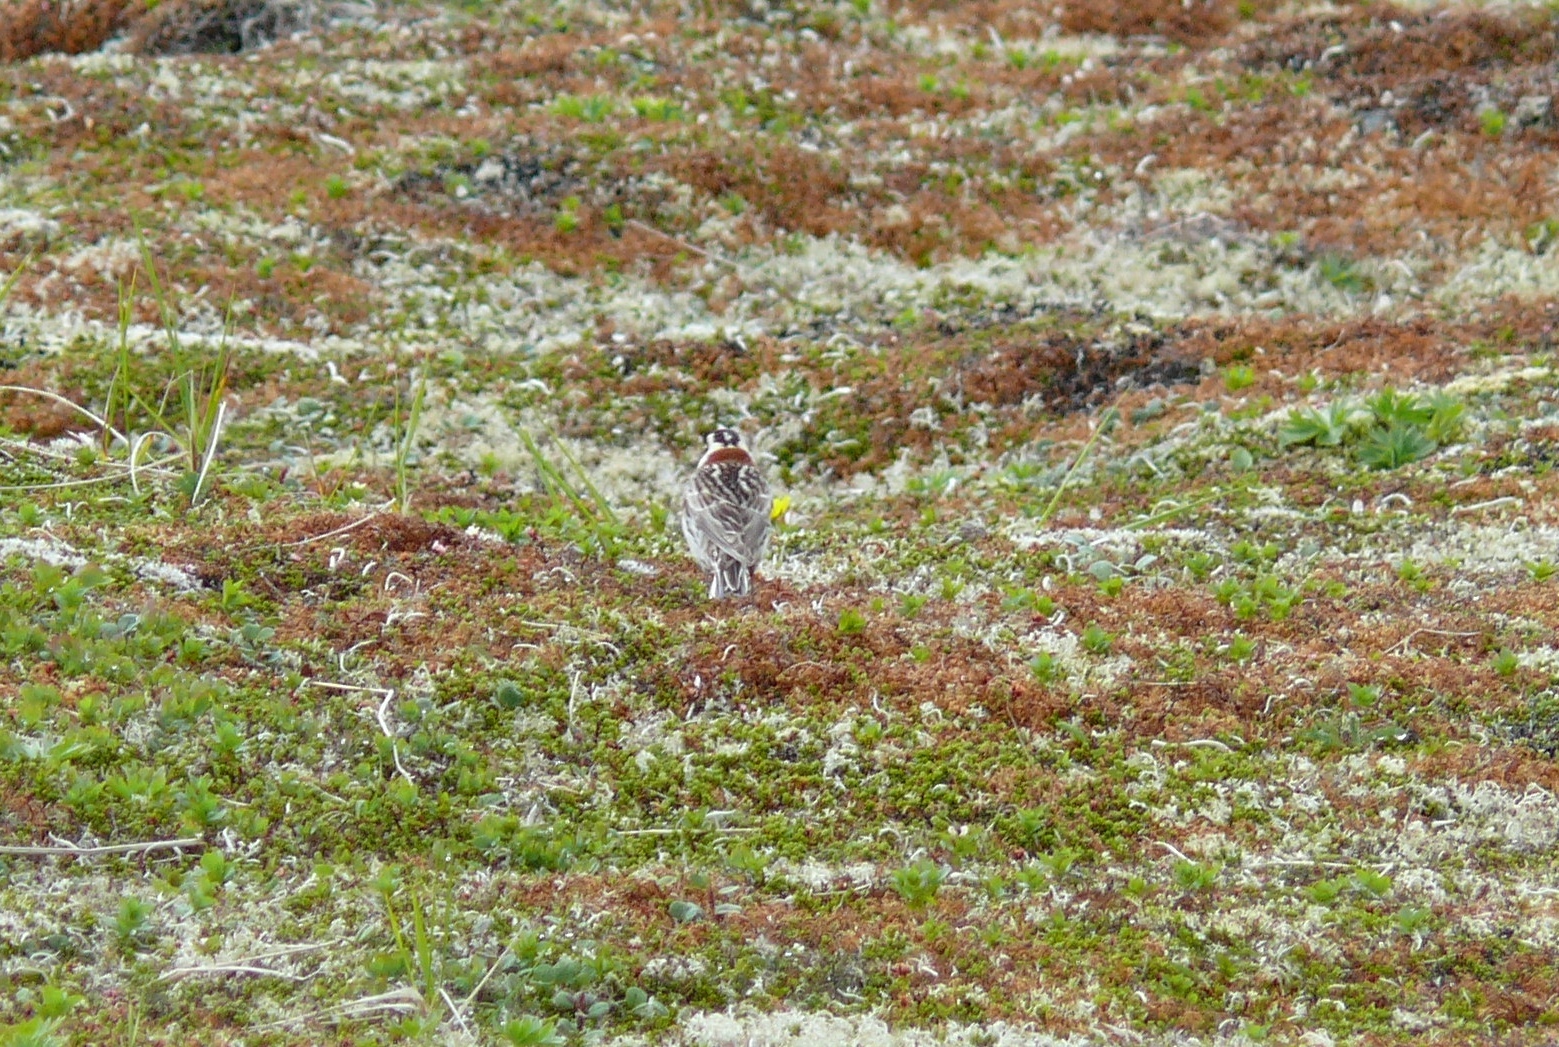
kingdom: Animalia
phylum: Chordata
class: Aves
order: Passeriformes
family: Calcariidae
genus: Calcarius
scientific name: Calcarius lapponicus
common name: Lapland longspur
